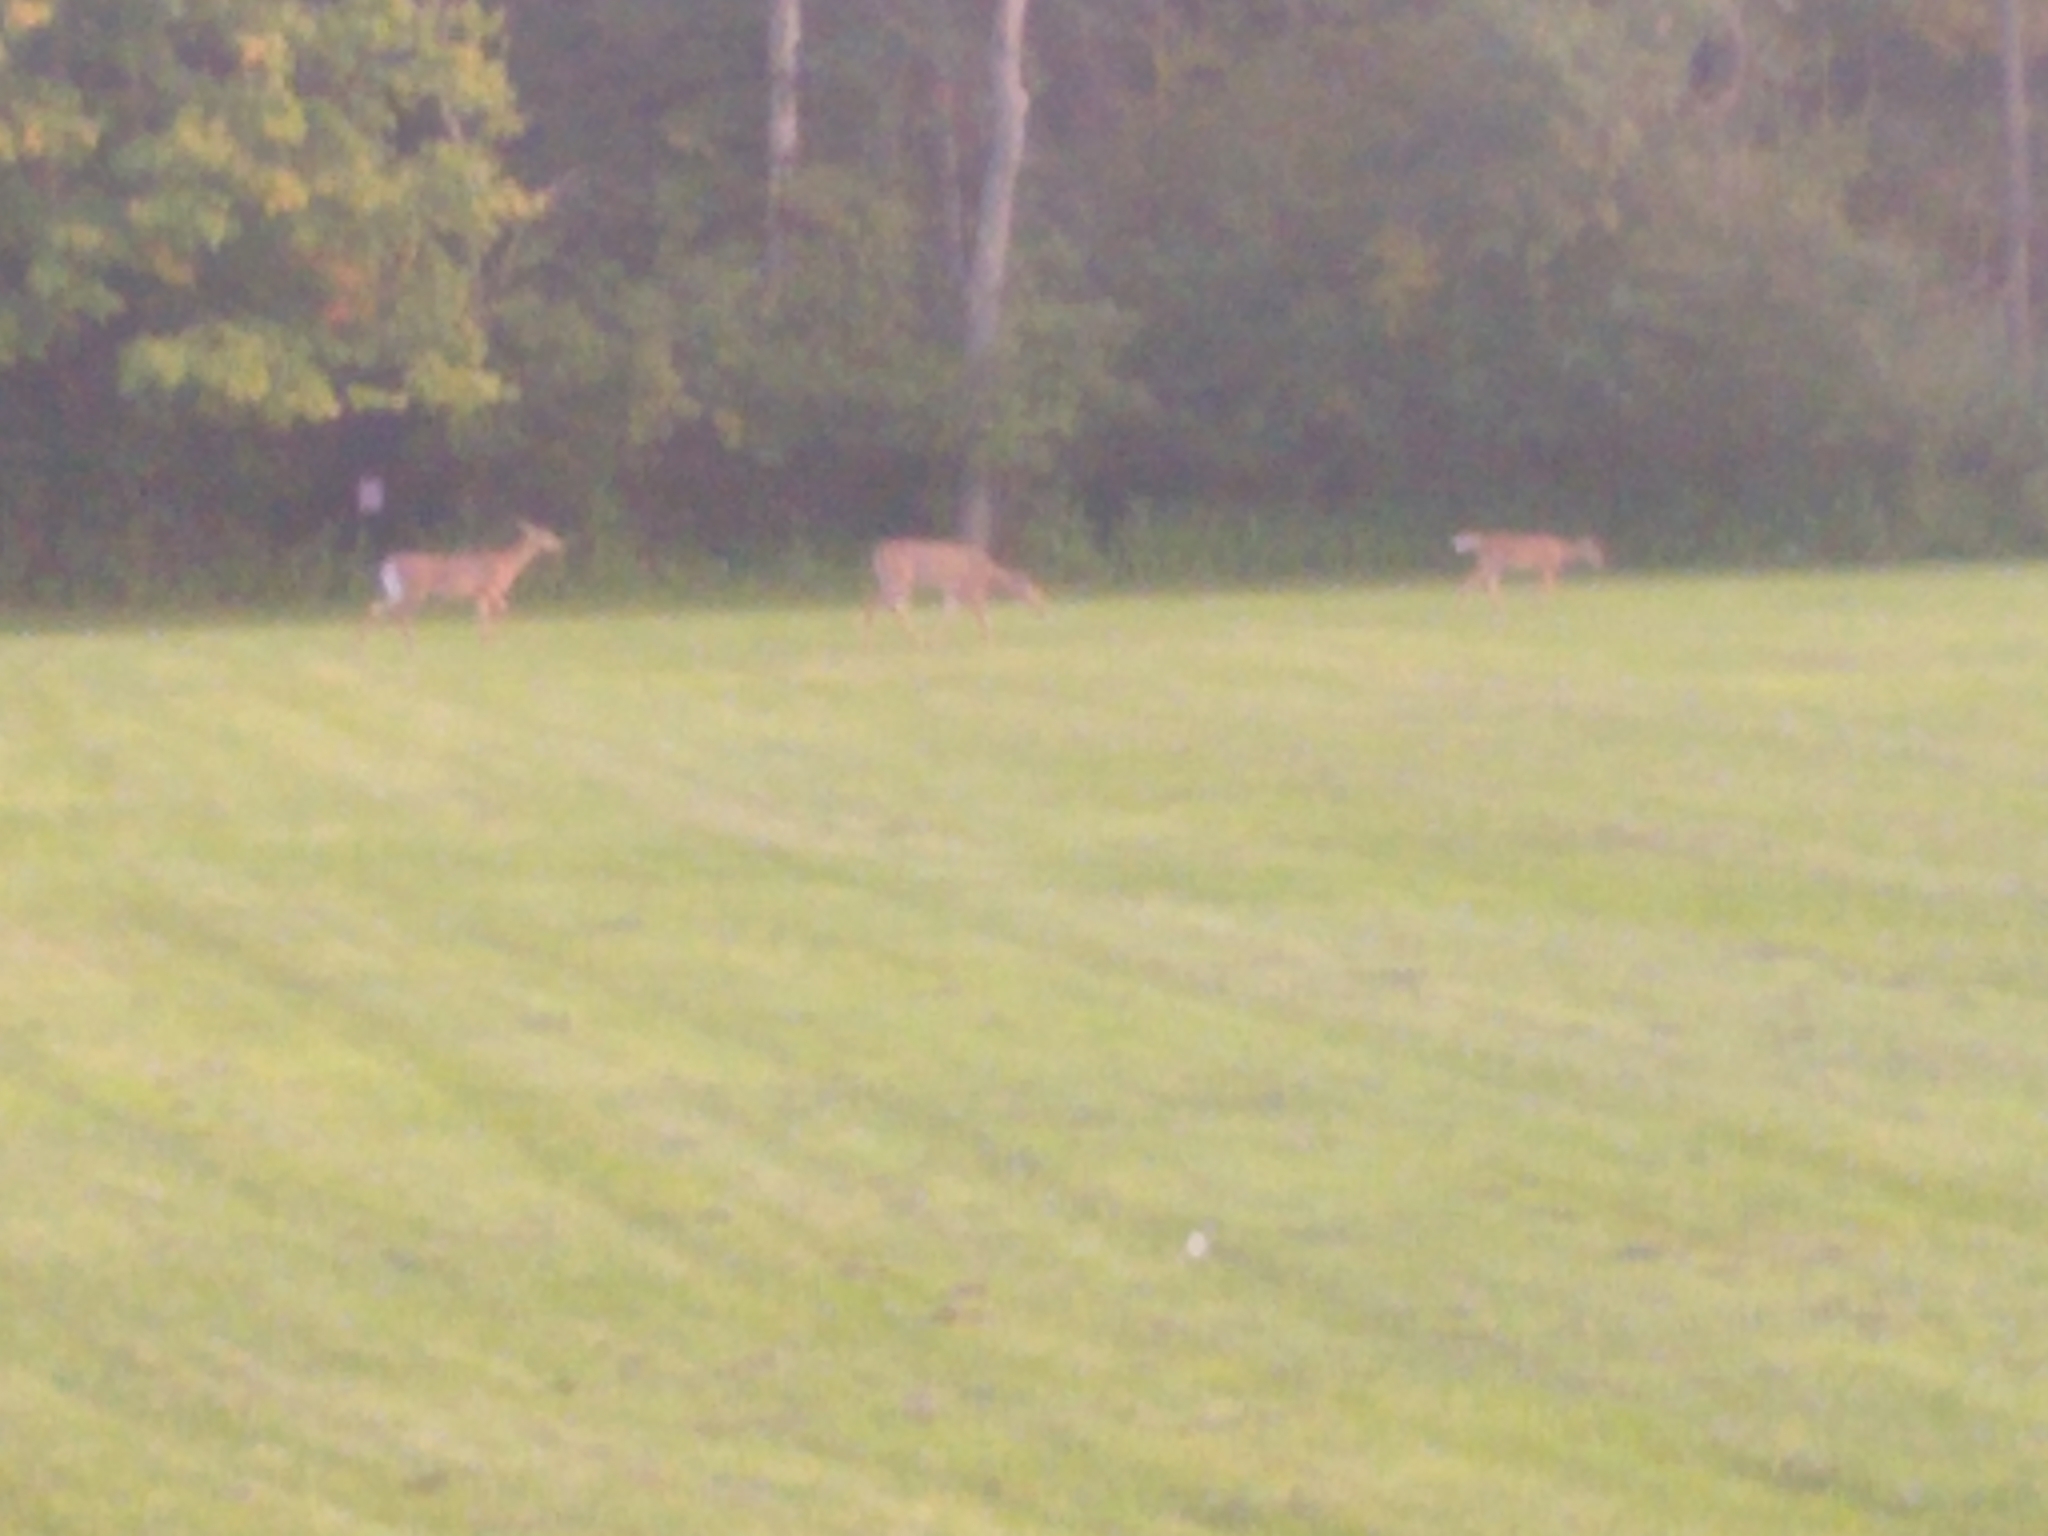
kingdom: Animalia
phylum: Chordata
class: Mammalia
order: Artiodactyla
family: Cervidae
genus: Odocoileus
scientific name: Odocoileus virginianus
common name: White-tailed deer
